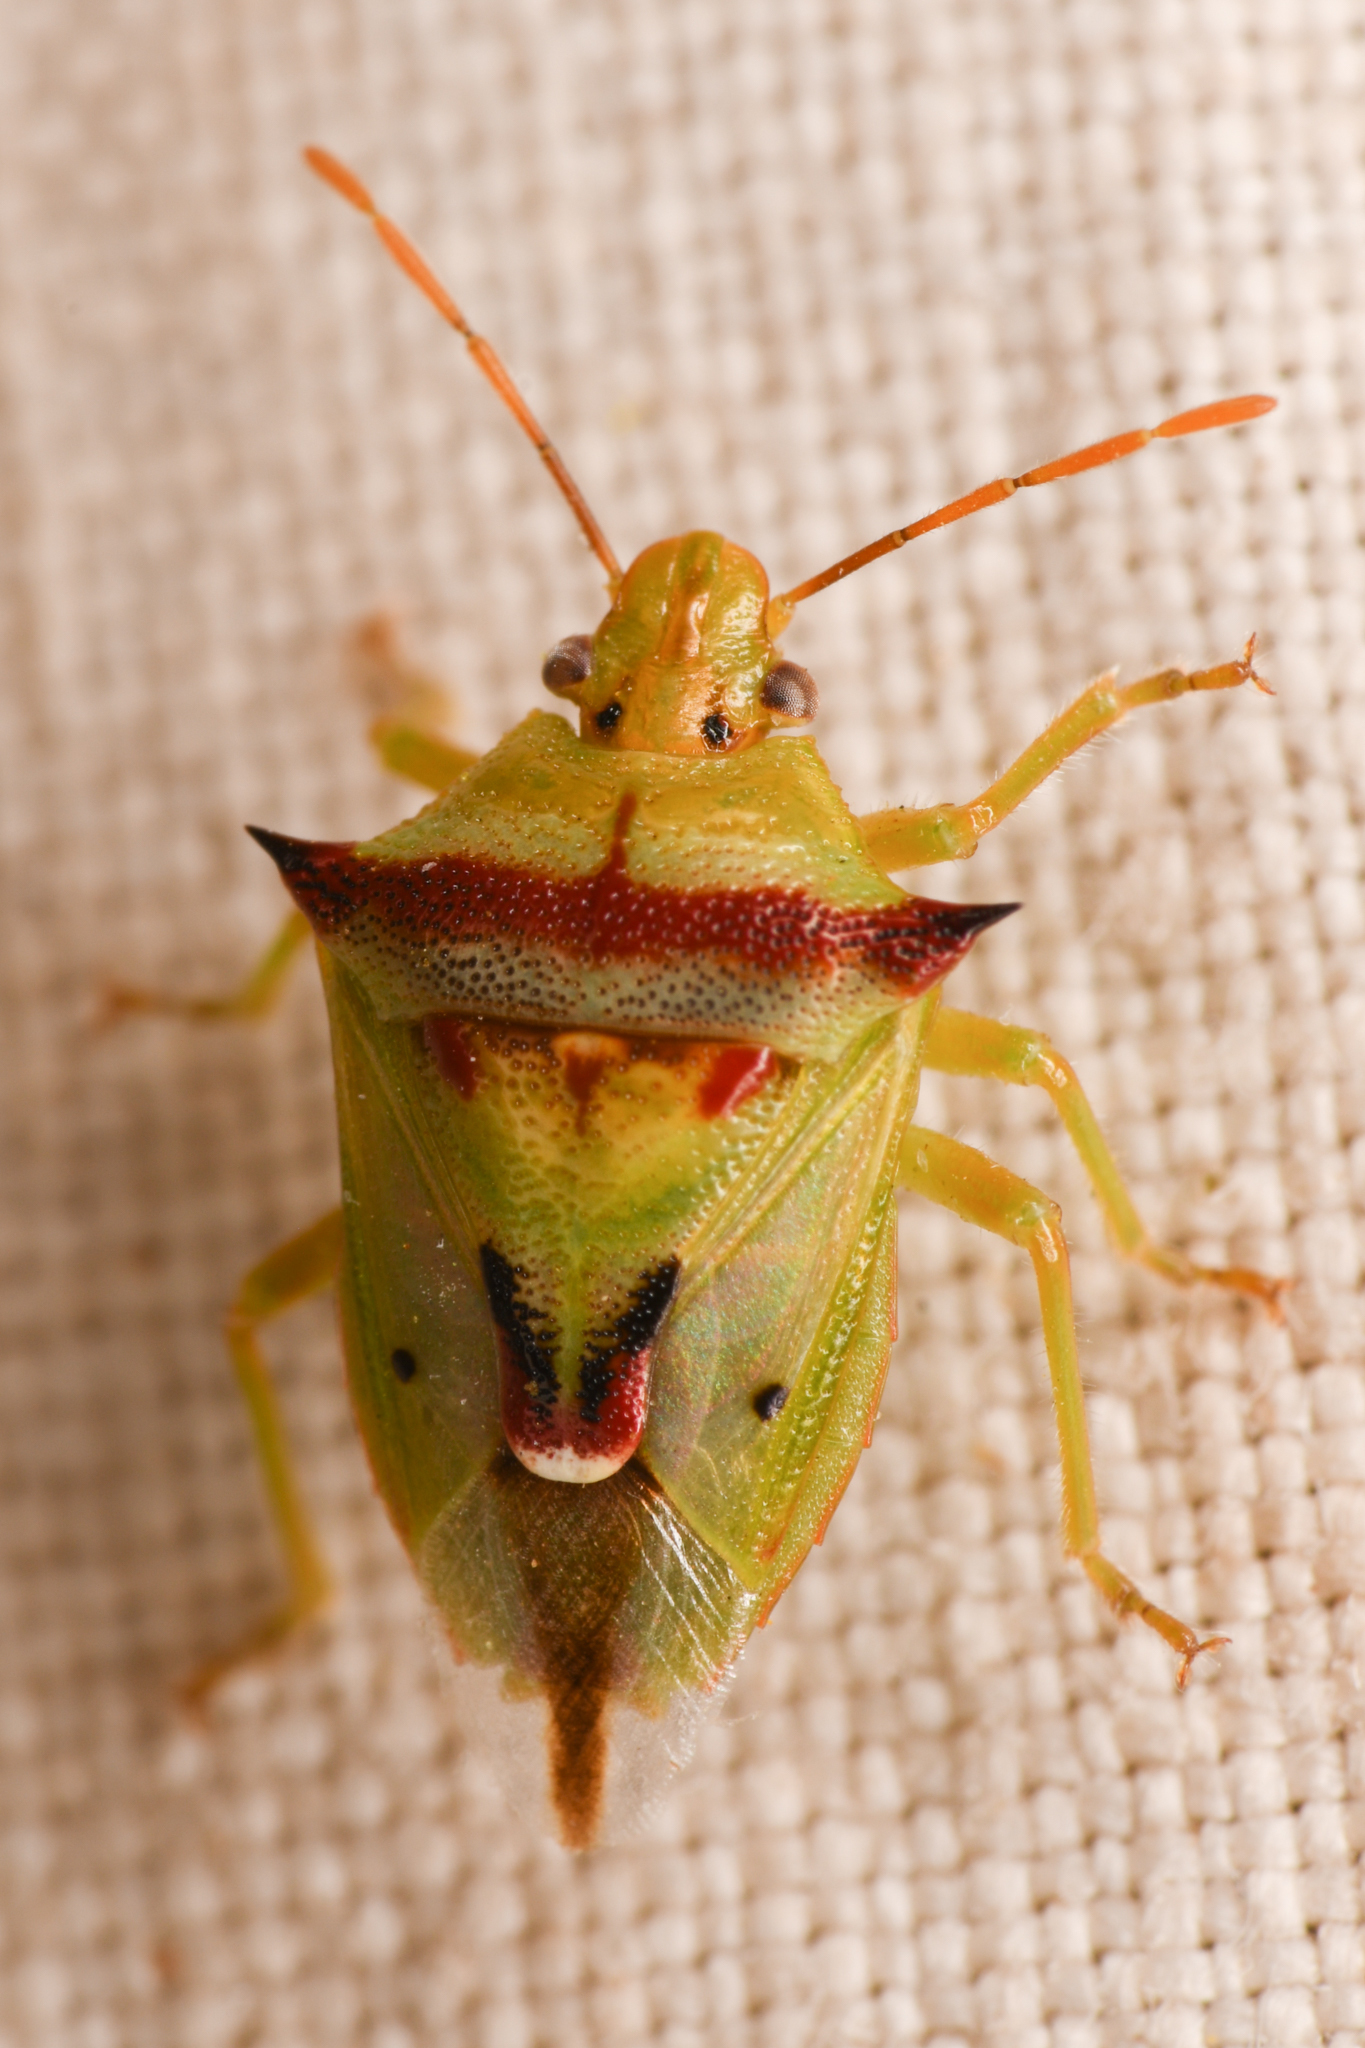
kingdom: Animalia
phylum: Arthropoda
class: Insecta
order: Hemiptera
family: Pentatomidae
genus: Tylospilus
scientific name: Tylospilus acutissimus
